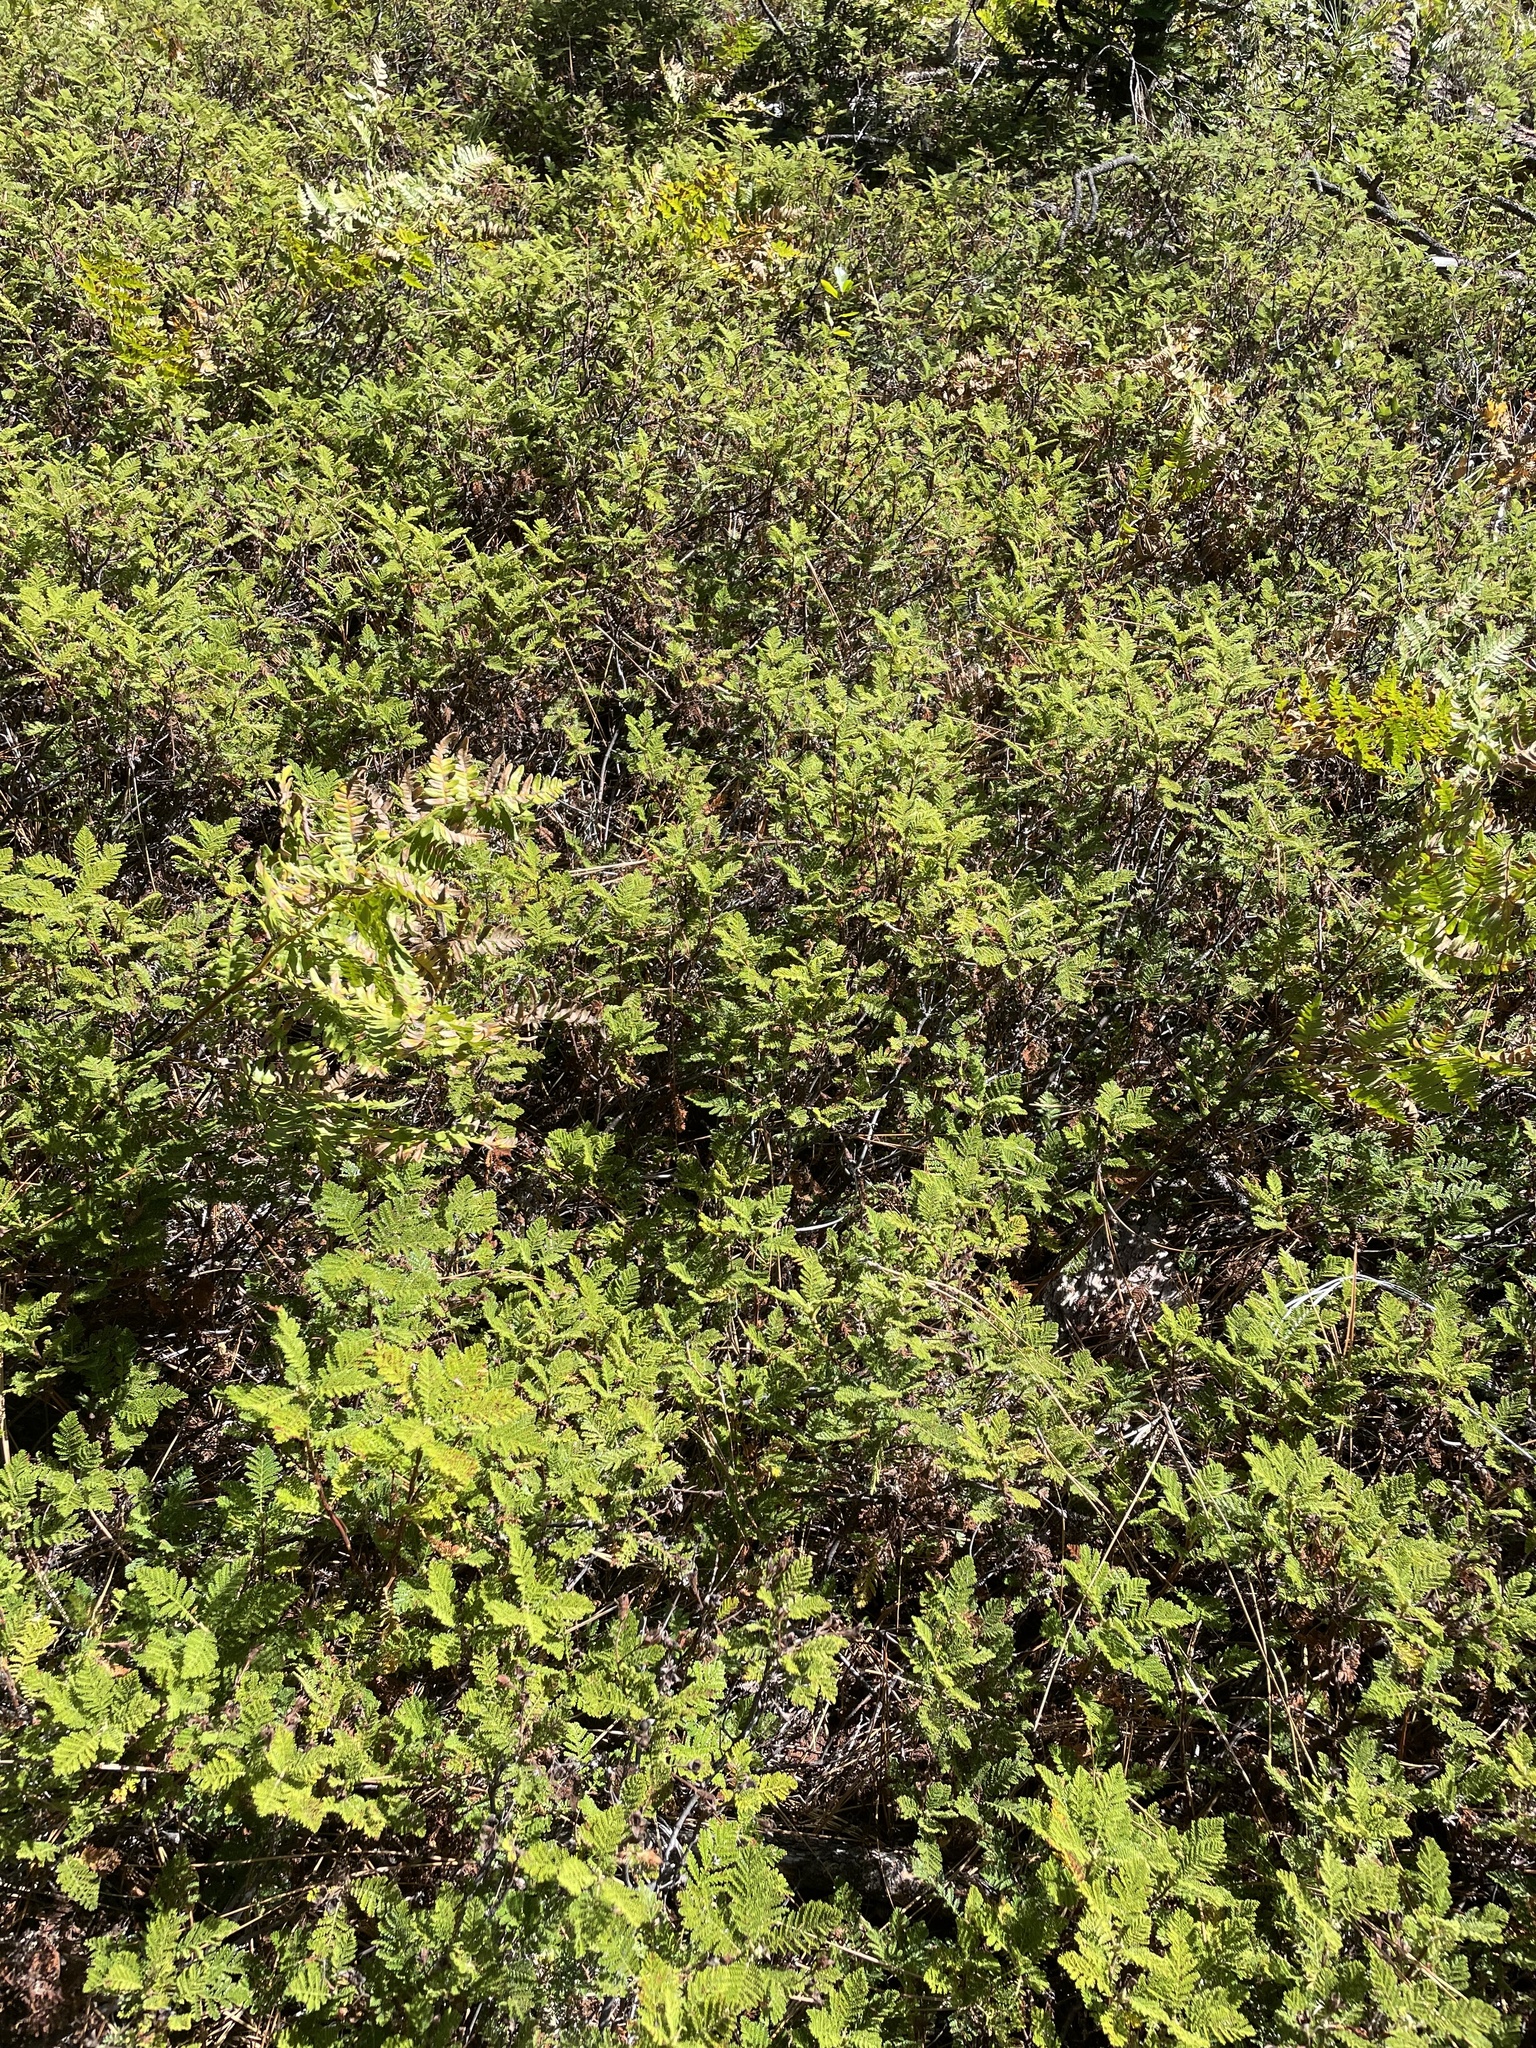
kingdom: Plantae
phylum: Tracheophyta
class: Magnoliopsida
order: Rosales
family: Rosaceae
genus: Chamaebatia
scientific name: Chamaebatia foliolosa
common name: Mountain misery
